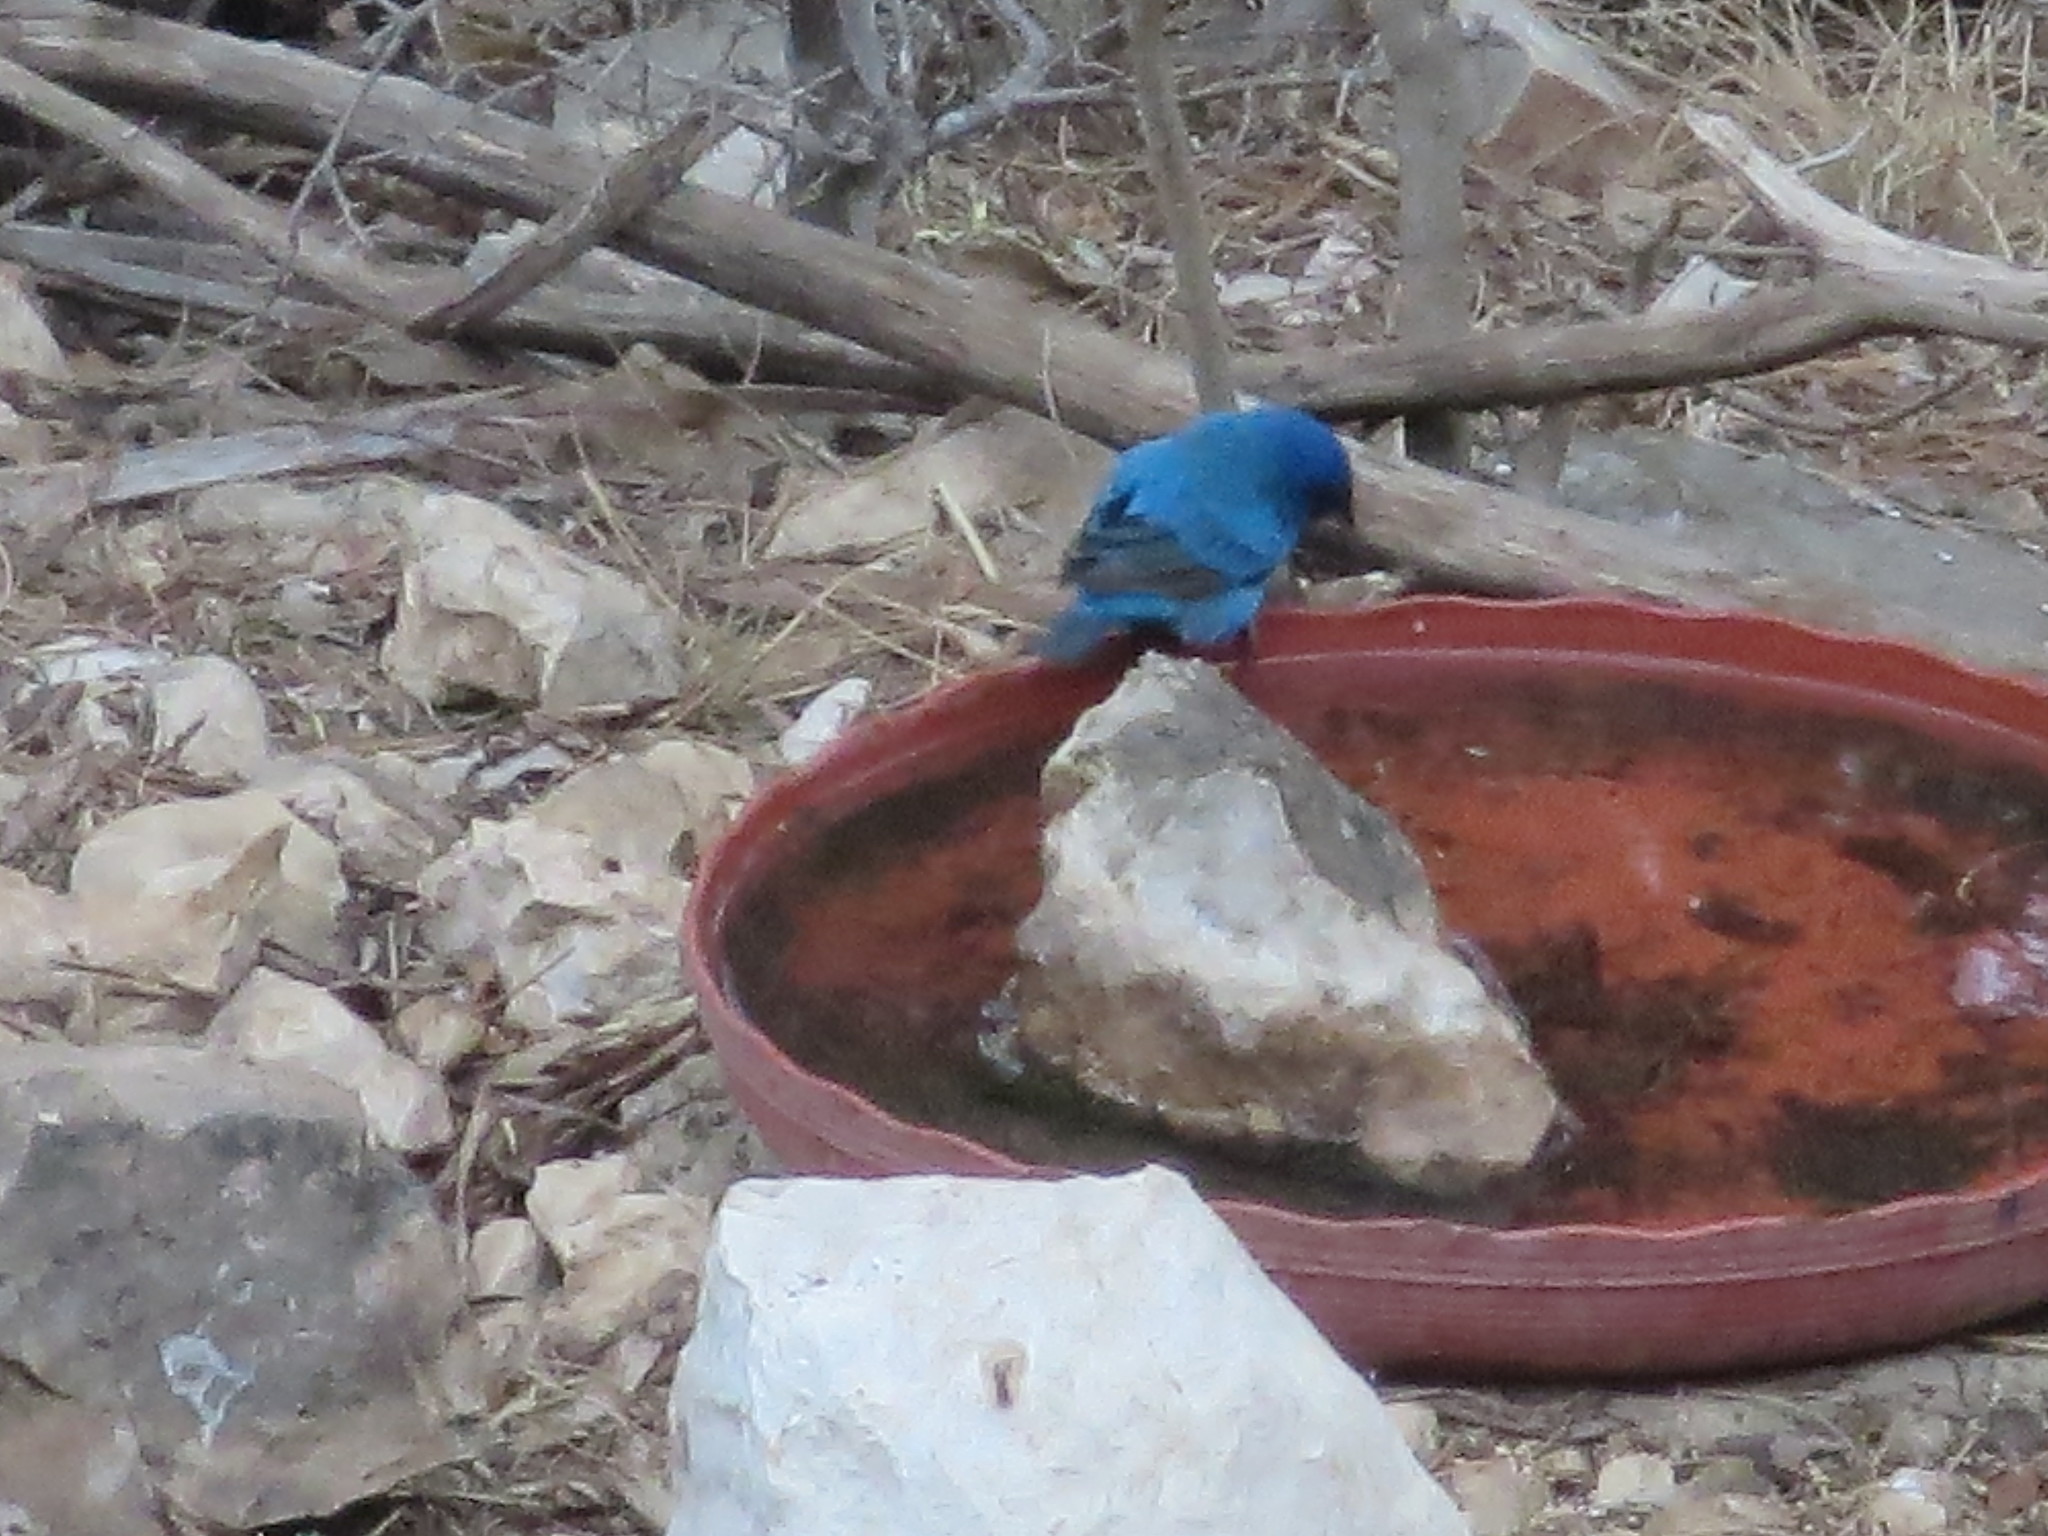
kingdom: Animalia
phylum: Chordata
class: Aves
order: Passeriformes
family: Cardinalidae
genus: Passerina
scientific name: Passerina cyanea
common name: Indigo bunting
